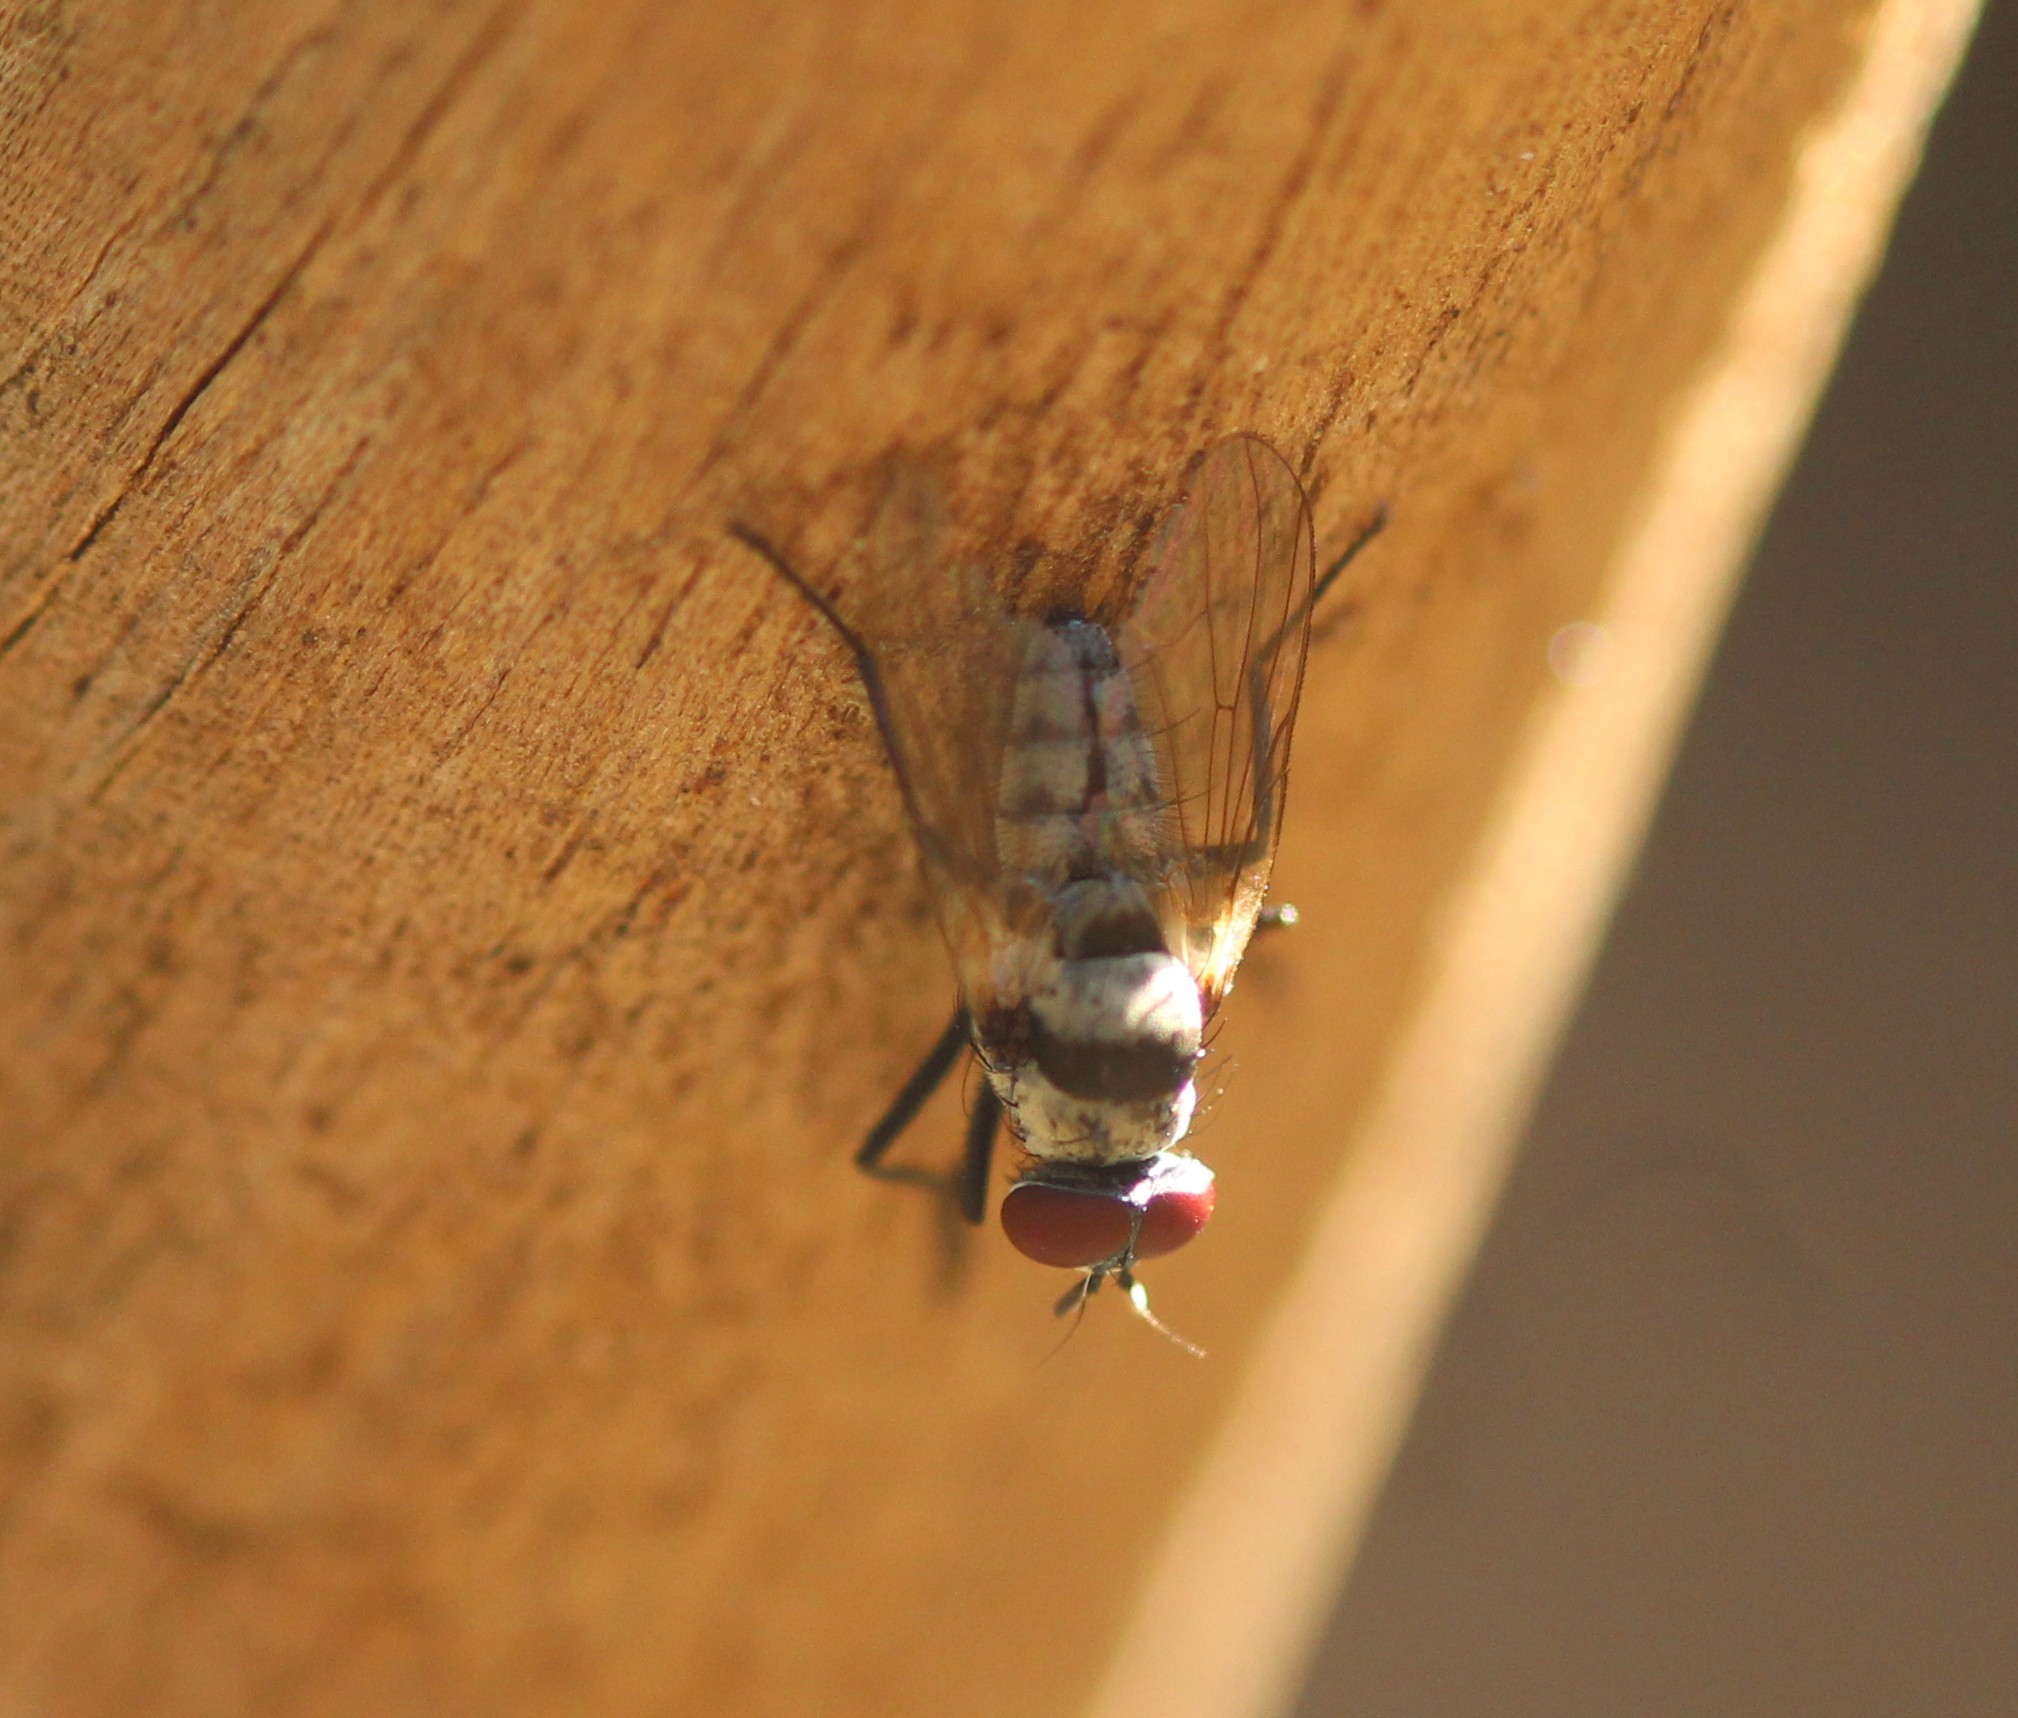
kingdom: Animalia
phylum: Arthropoda
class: Insecta
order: Diptera
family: Anthomyiidae
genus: Anthomyia
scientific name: Anthomyia illocata
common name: Fly
